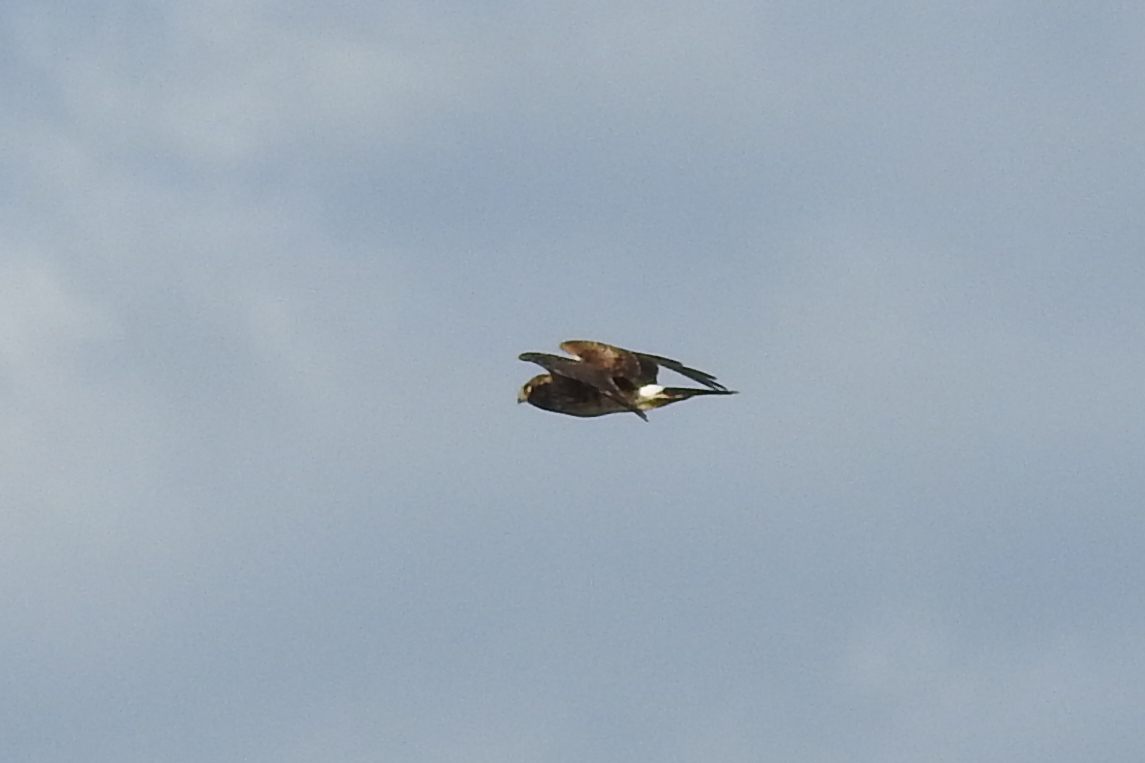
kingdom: Animalia
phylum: Chordata
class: Aves
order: Accipitriformes
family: Accipitridae
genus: Circus
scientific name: Circus cyaneus
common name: Hen harrier
